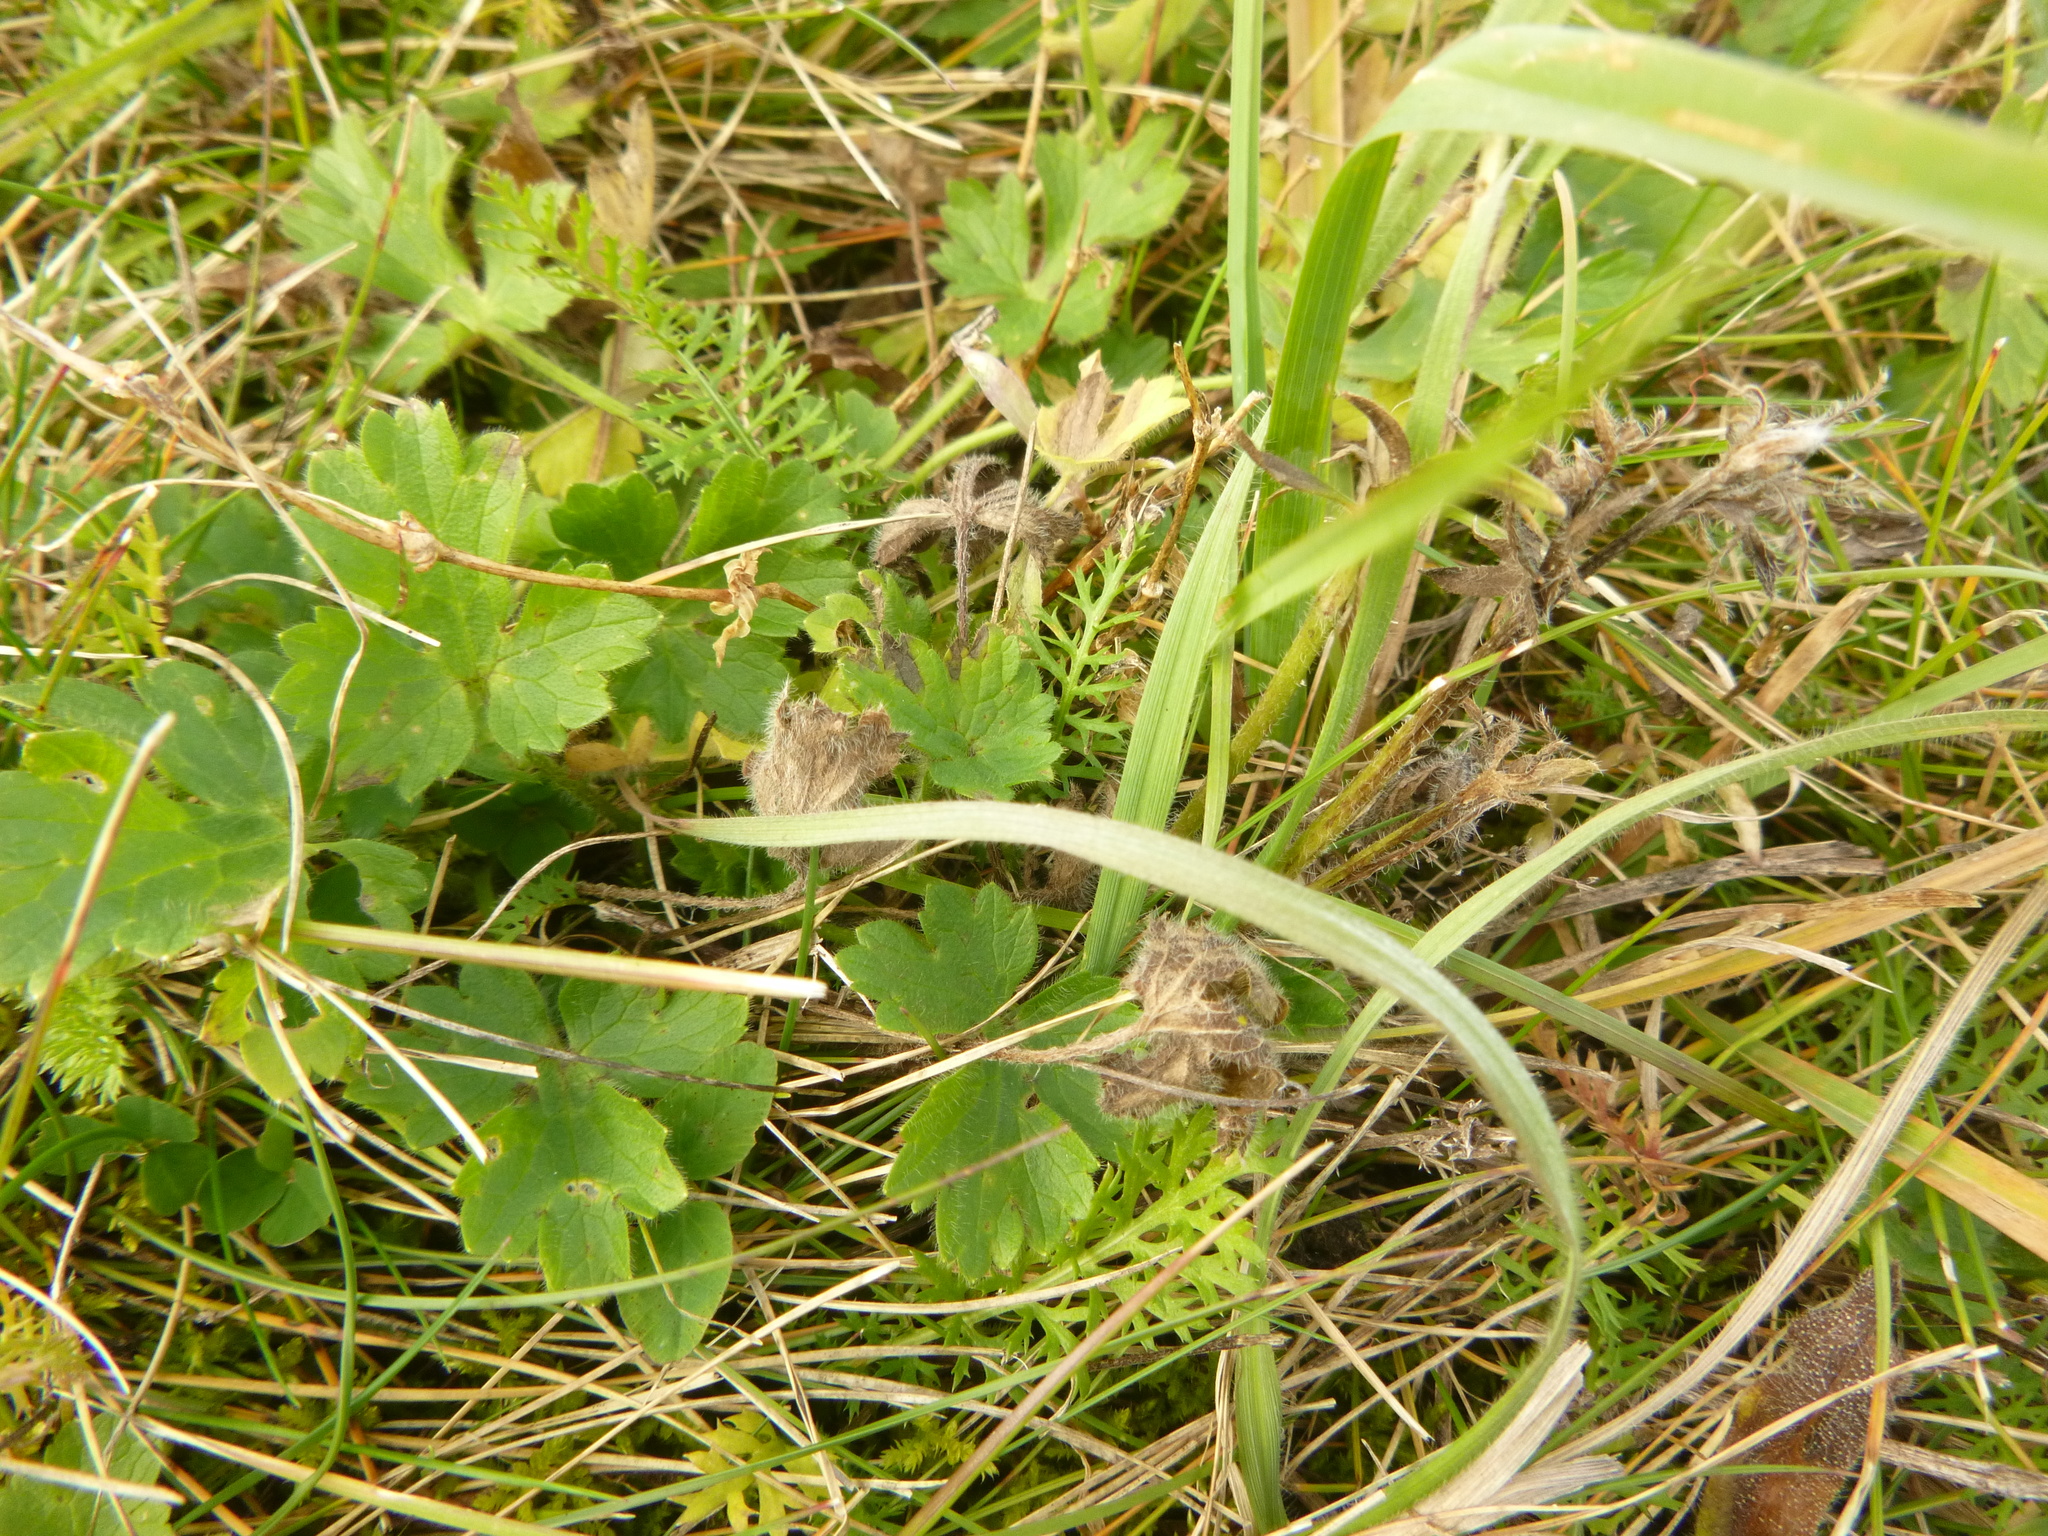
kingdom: Plantae
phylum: Tracheophyta
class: Magnoliopsida
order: Ranunculales
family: Ranunculaceae
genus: Ranunculus
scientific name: Ranunculus bulbosus
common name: Bulbous buttercup
